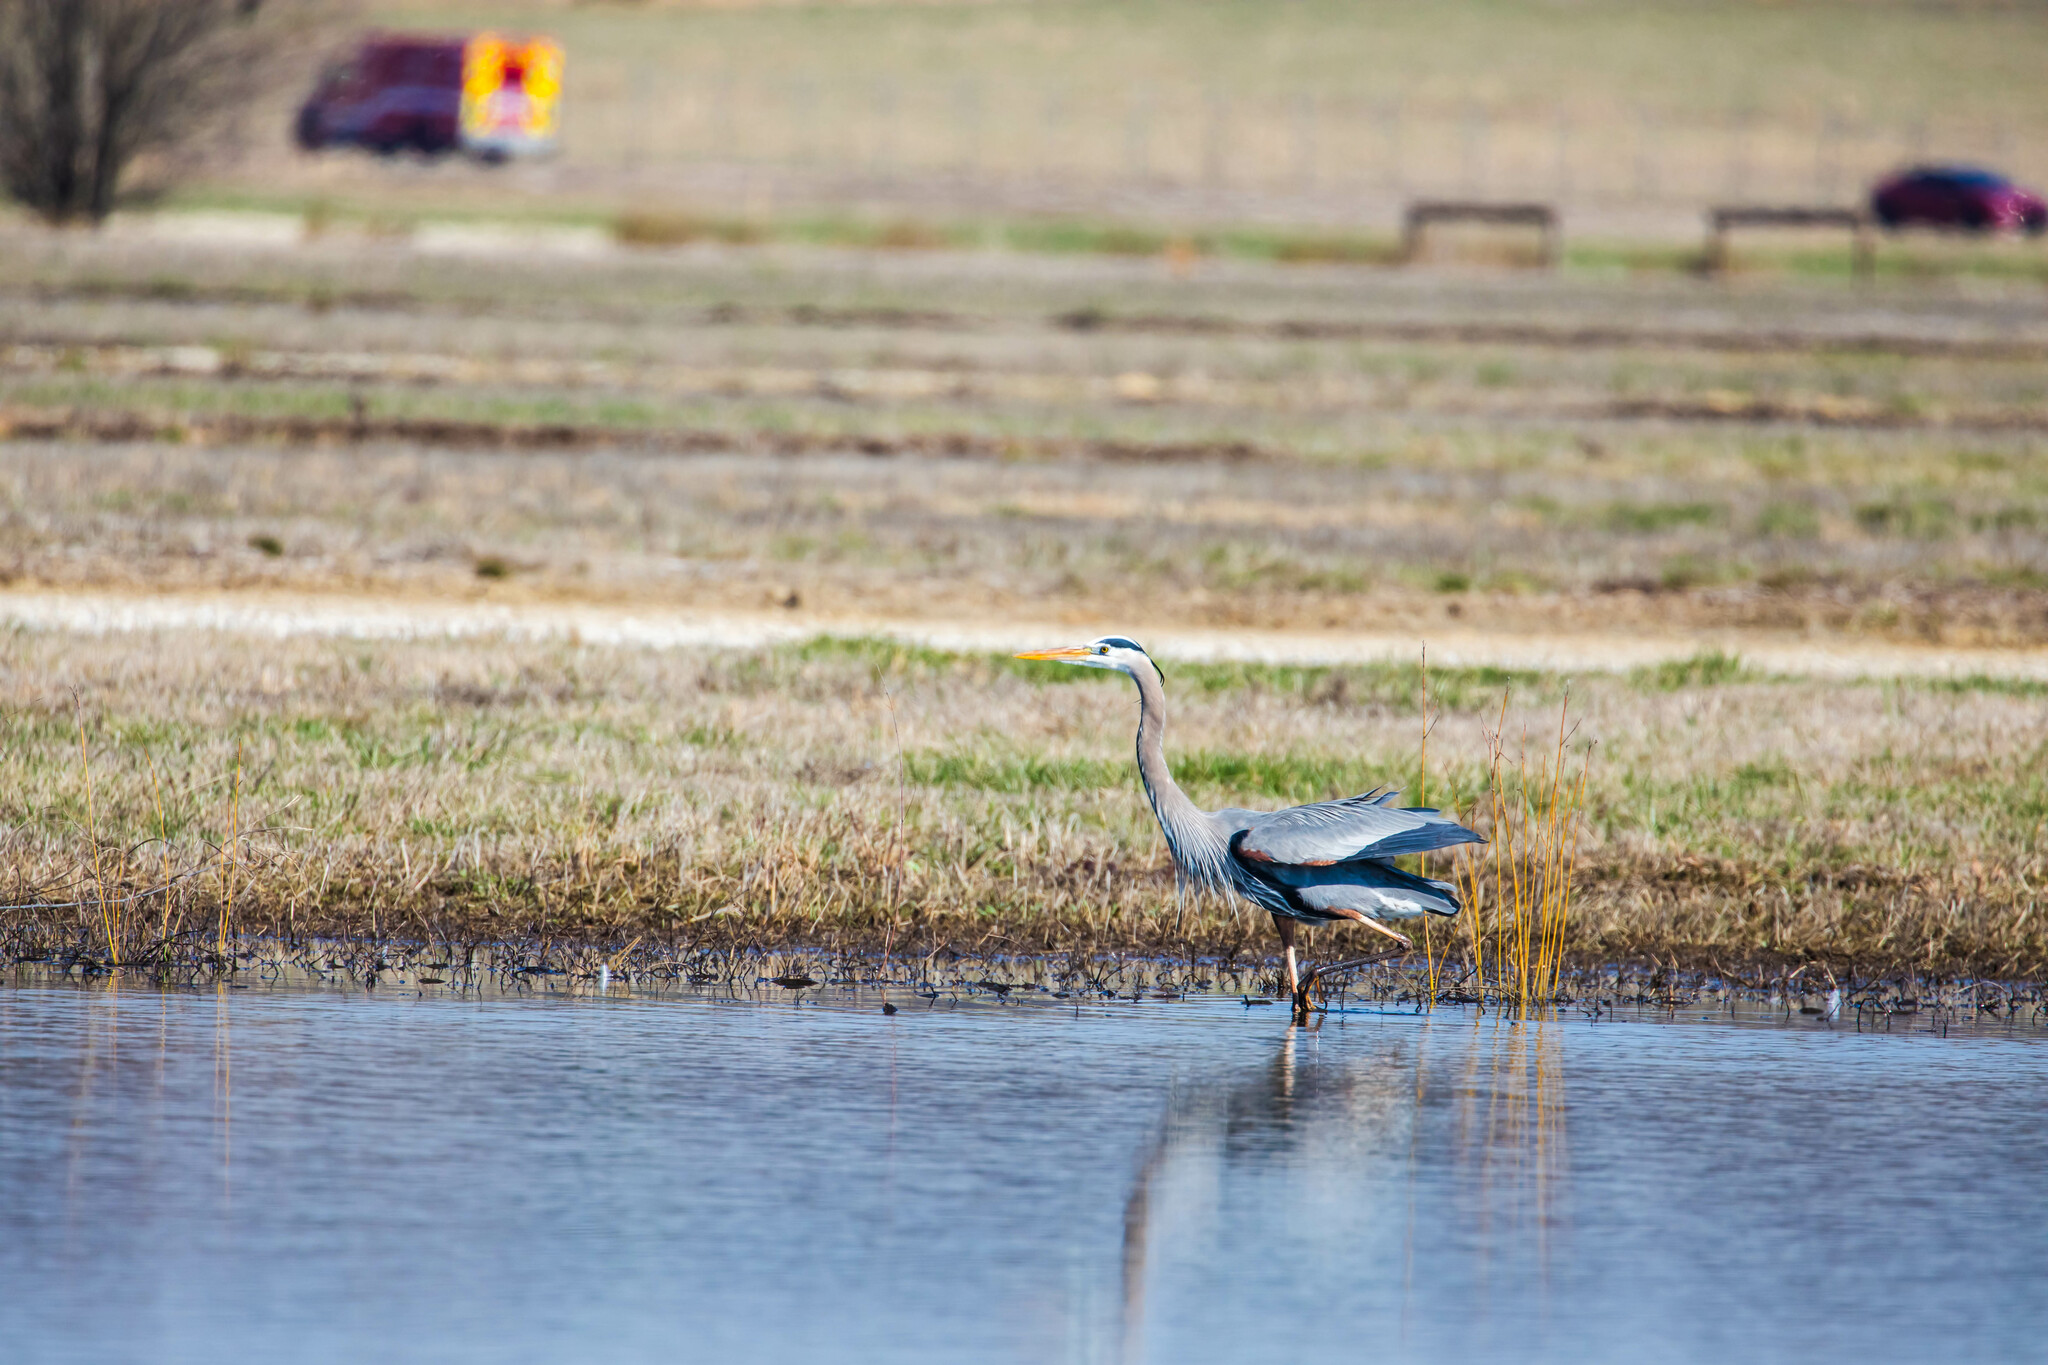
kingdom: Animalia
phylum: Chordata
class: Aves
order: Pelecaniformes
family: Ardeidae
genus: Ardea
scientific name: Ardea herodias
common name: Great blue heron
